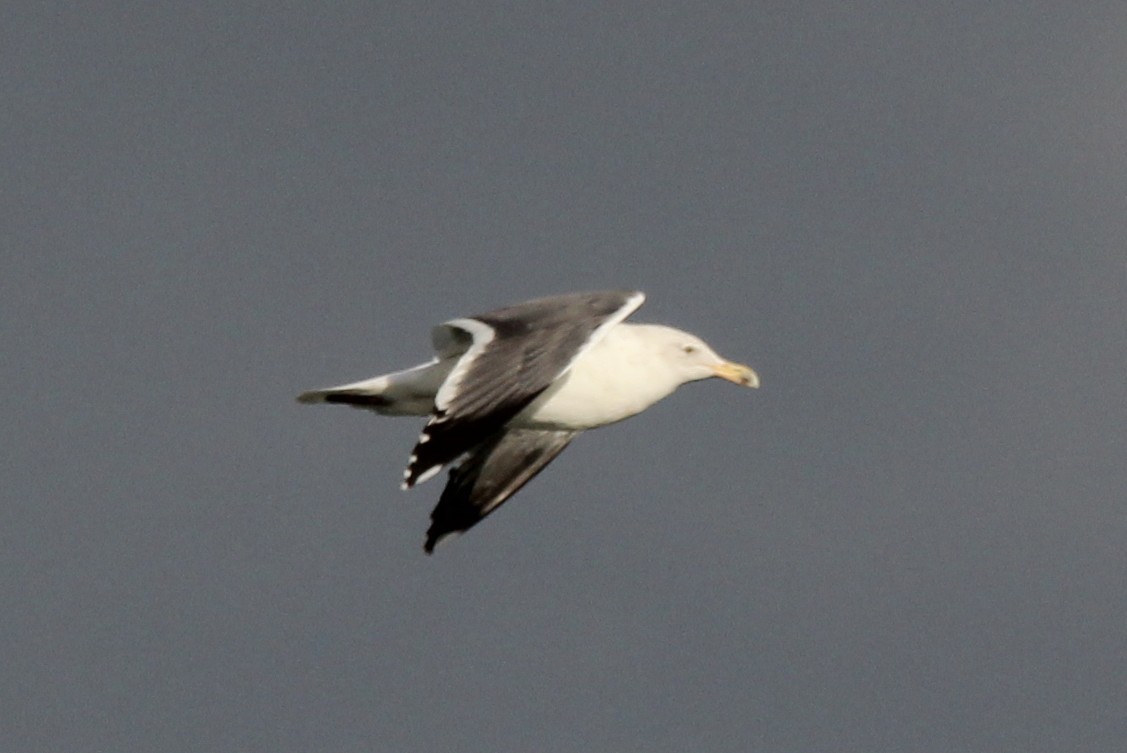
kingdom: Animalia
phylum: Chordata
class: Aves
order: Charadriiformes
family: Laridae
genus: Larus
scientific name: Larus occidentalis
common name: Western gull
